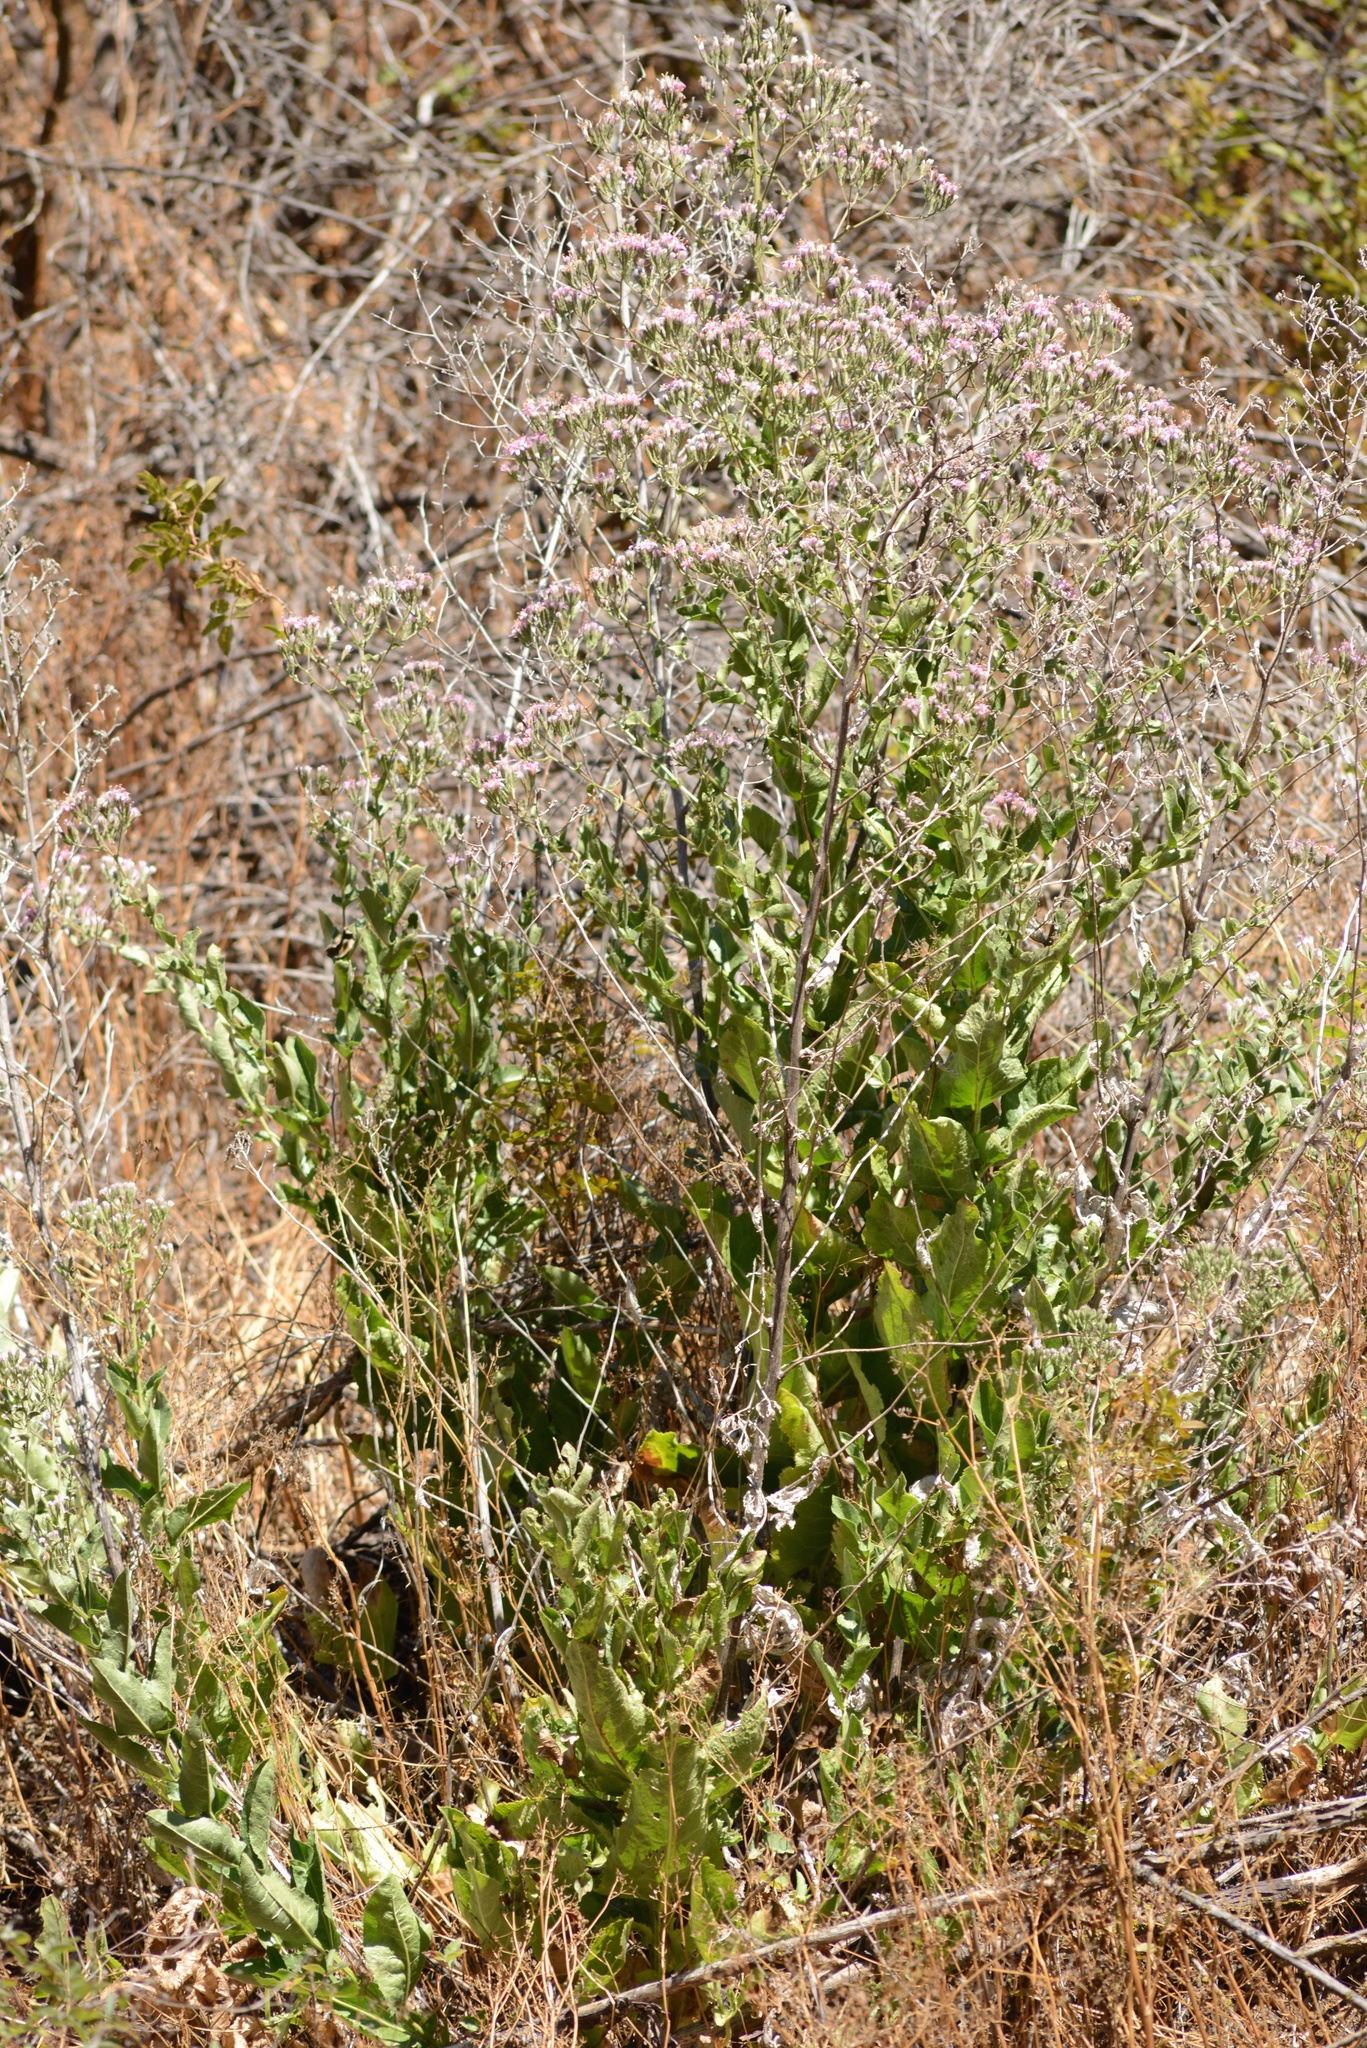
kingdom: Plantae
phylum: Tracheophyta
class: Magnoliopsida
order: Asterales
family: Asteraceae
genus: Acourtia
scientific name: Acourtia microcephala
